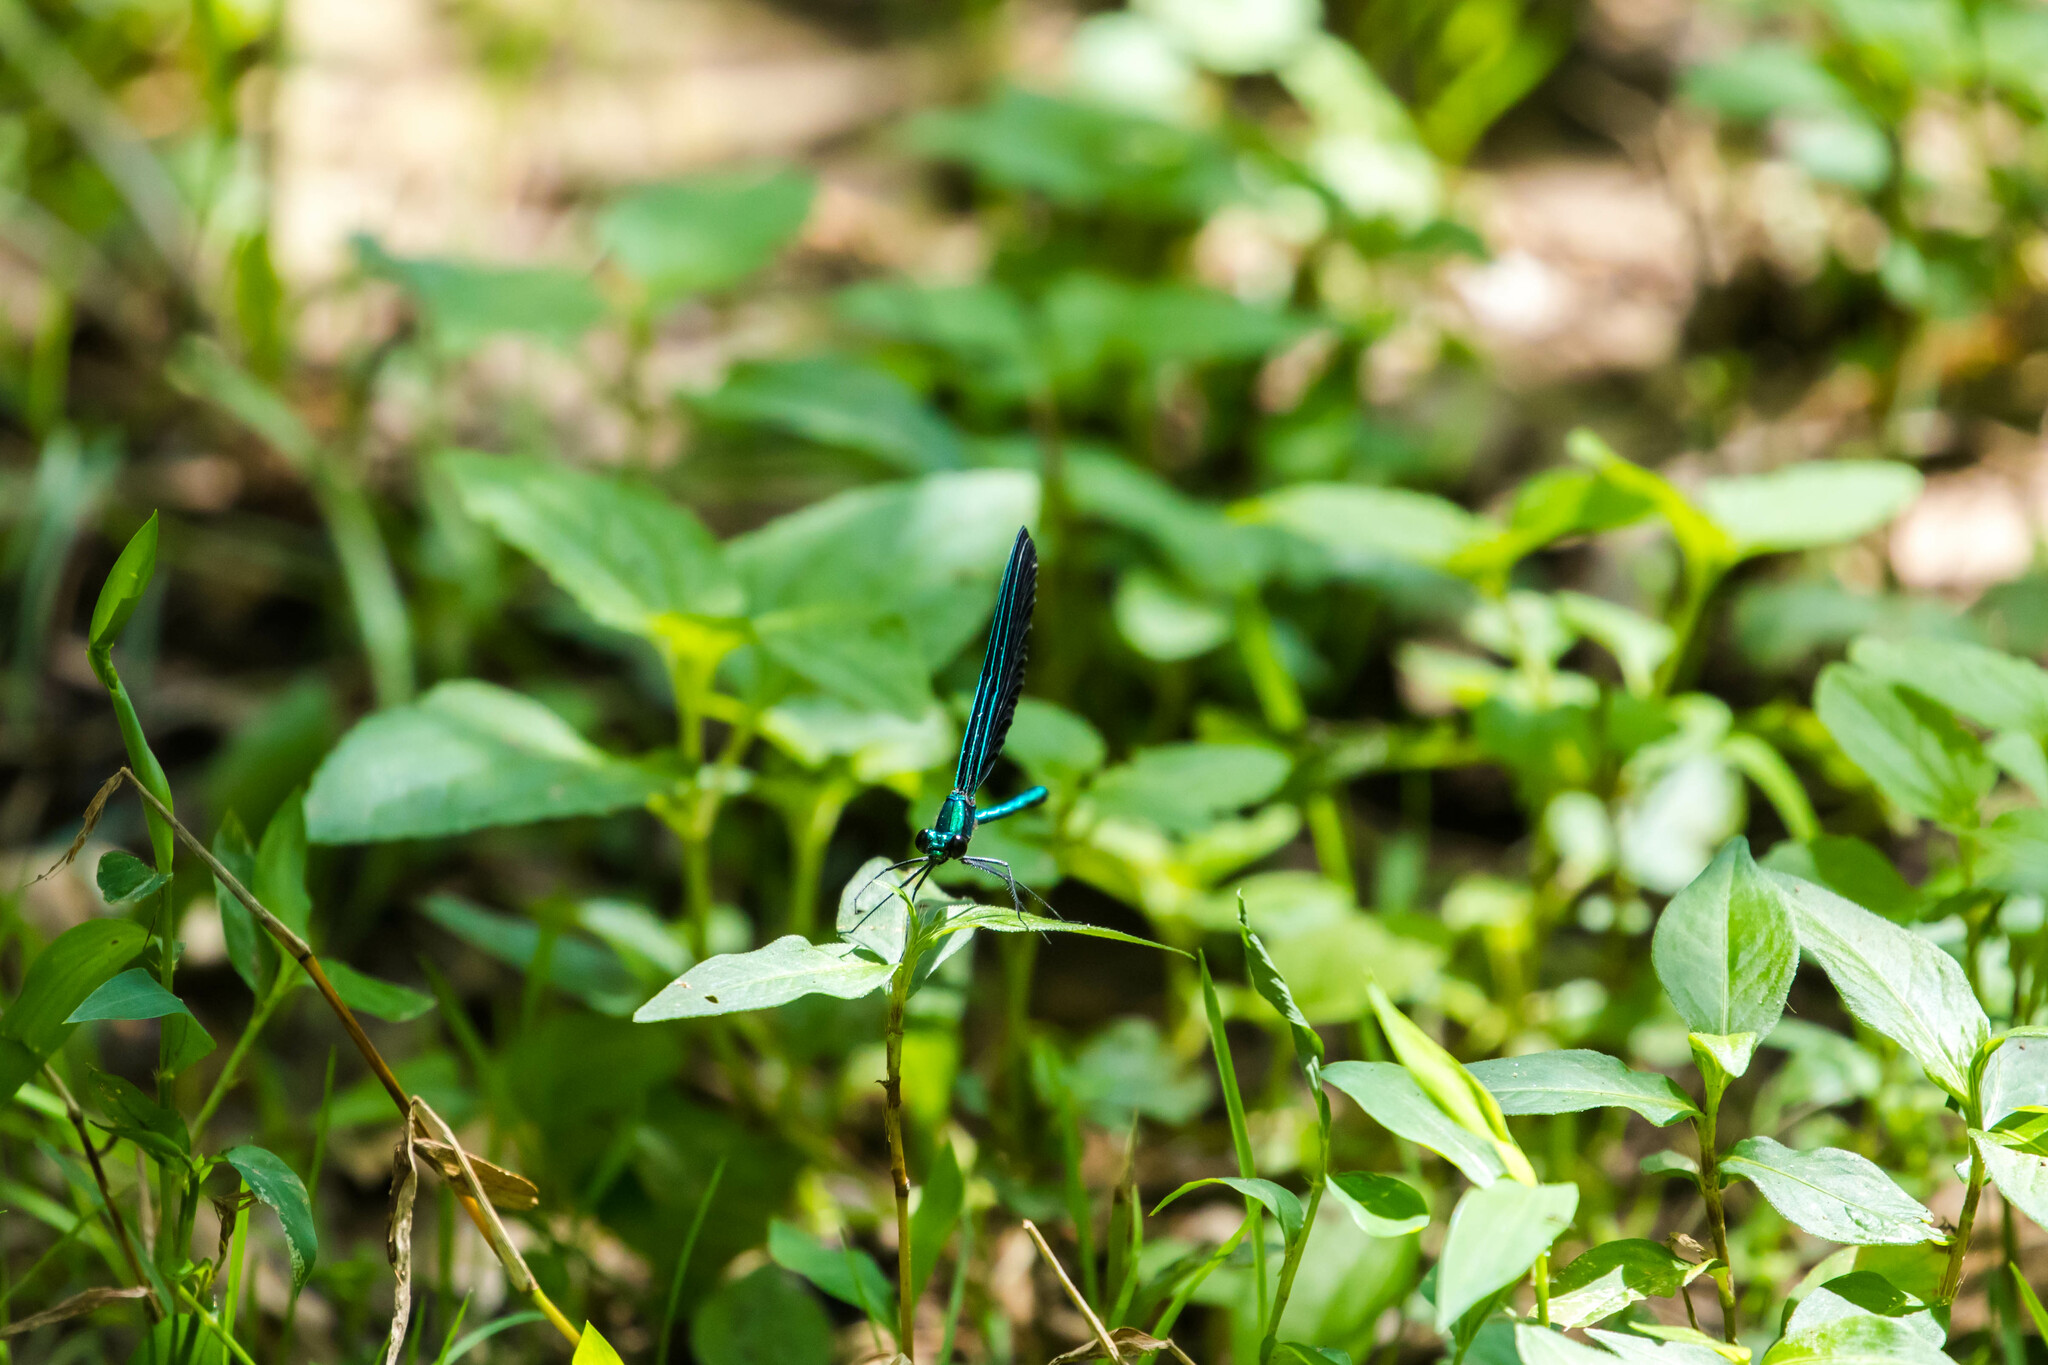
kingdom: Animalia
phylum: Arthropoda
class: Insecta
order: Odonata
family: Calopterygidae
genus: Calopteryx
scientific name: Calopteryx maculata
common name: Ebony jewelwing
